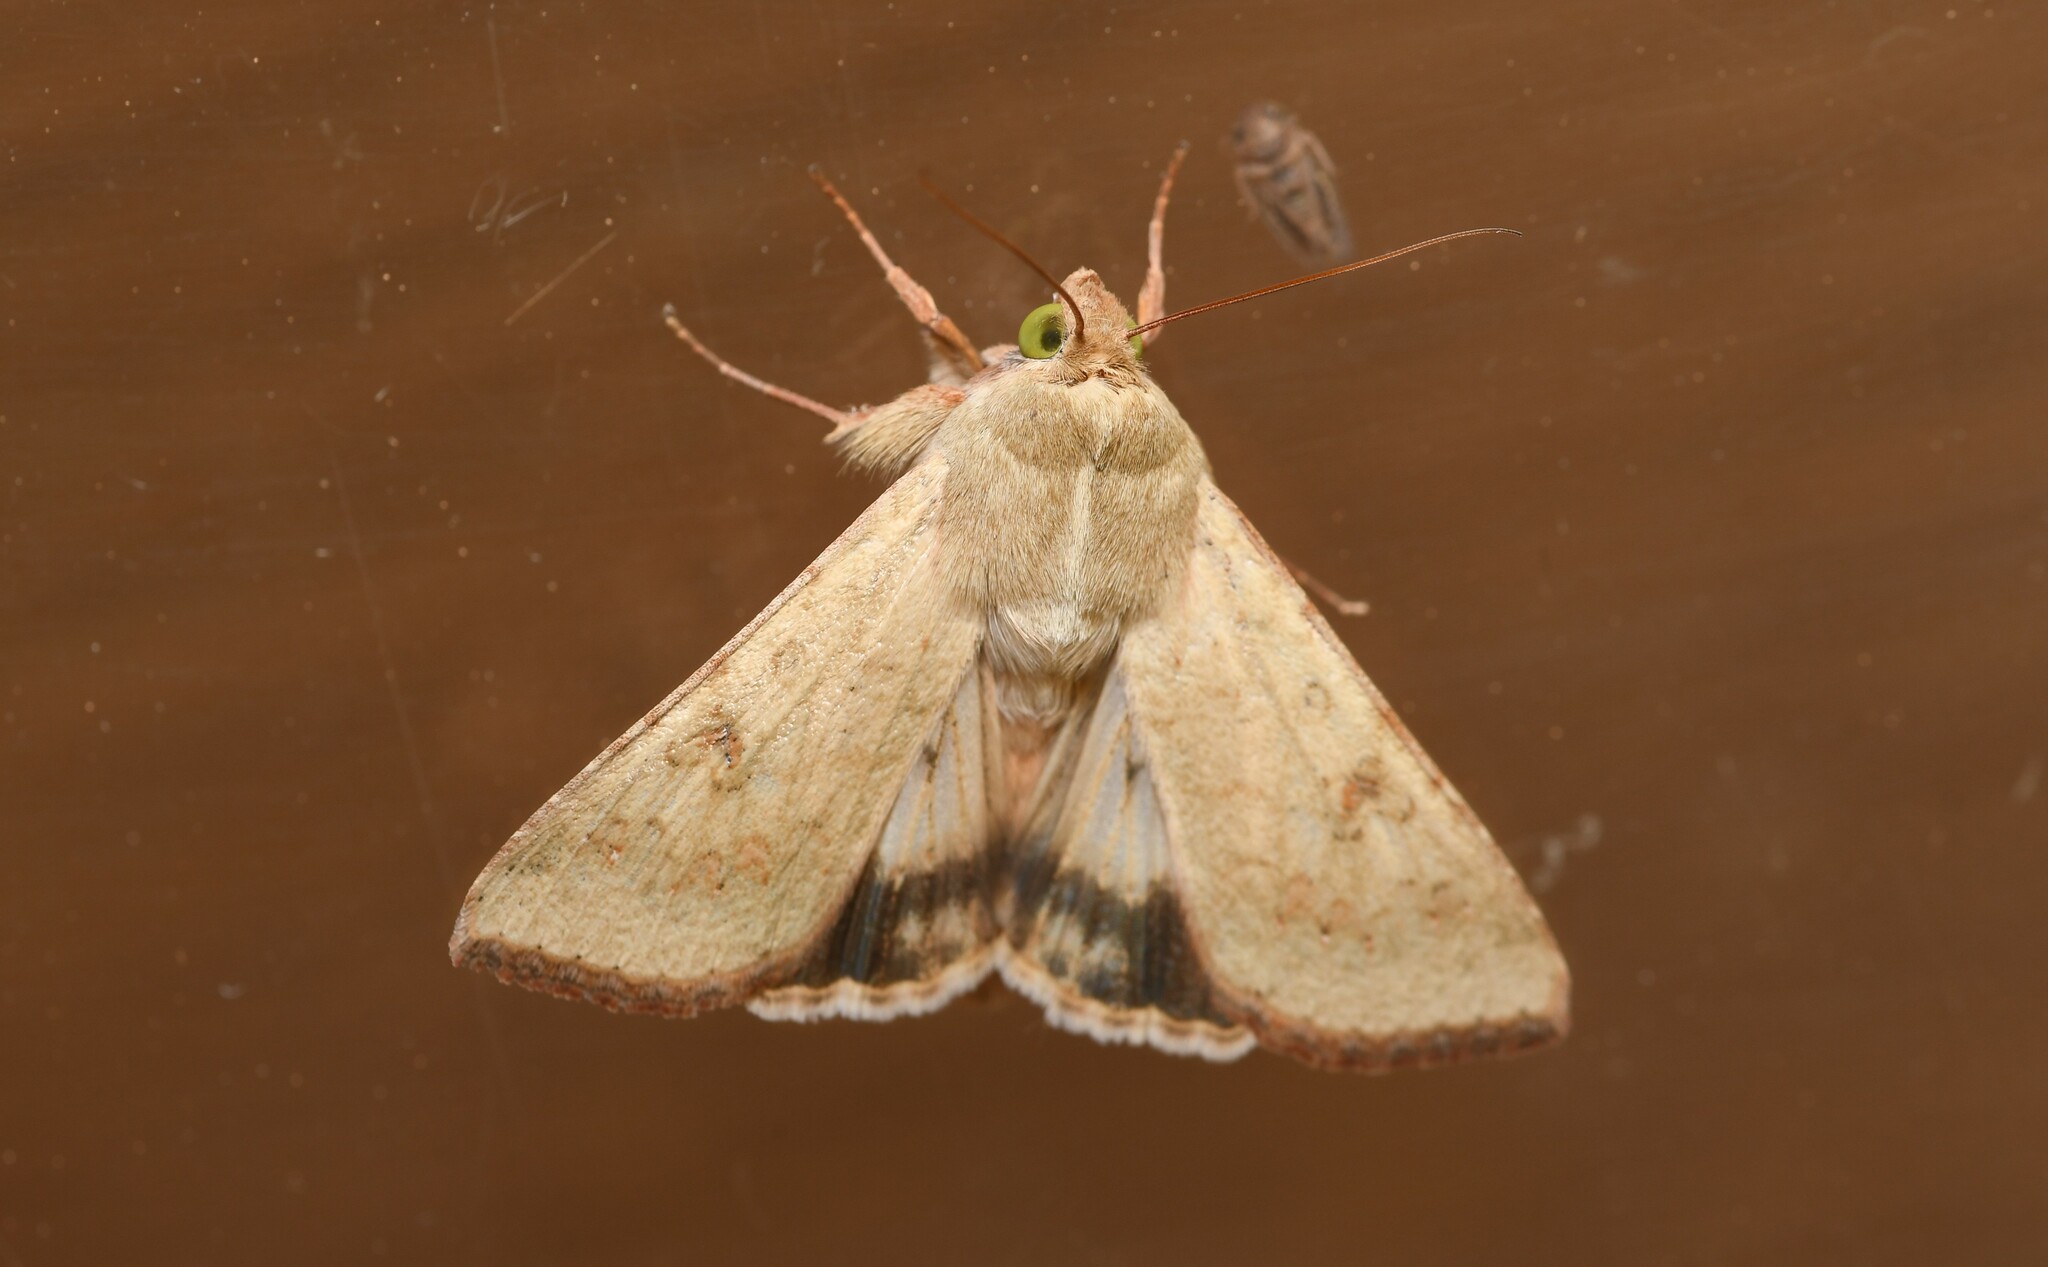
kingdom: Animalia
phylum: Arthropoda
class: Insecta
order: Lepidoptera
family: Noctuidae
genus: Helicoverpa
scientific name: Helicoverpa armigera
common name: Cotton bollworm
